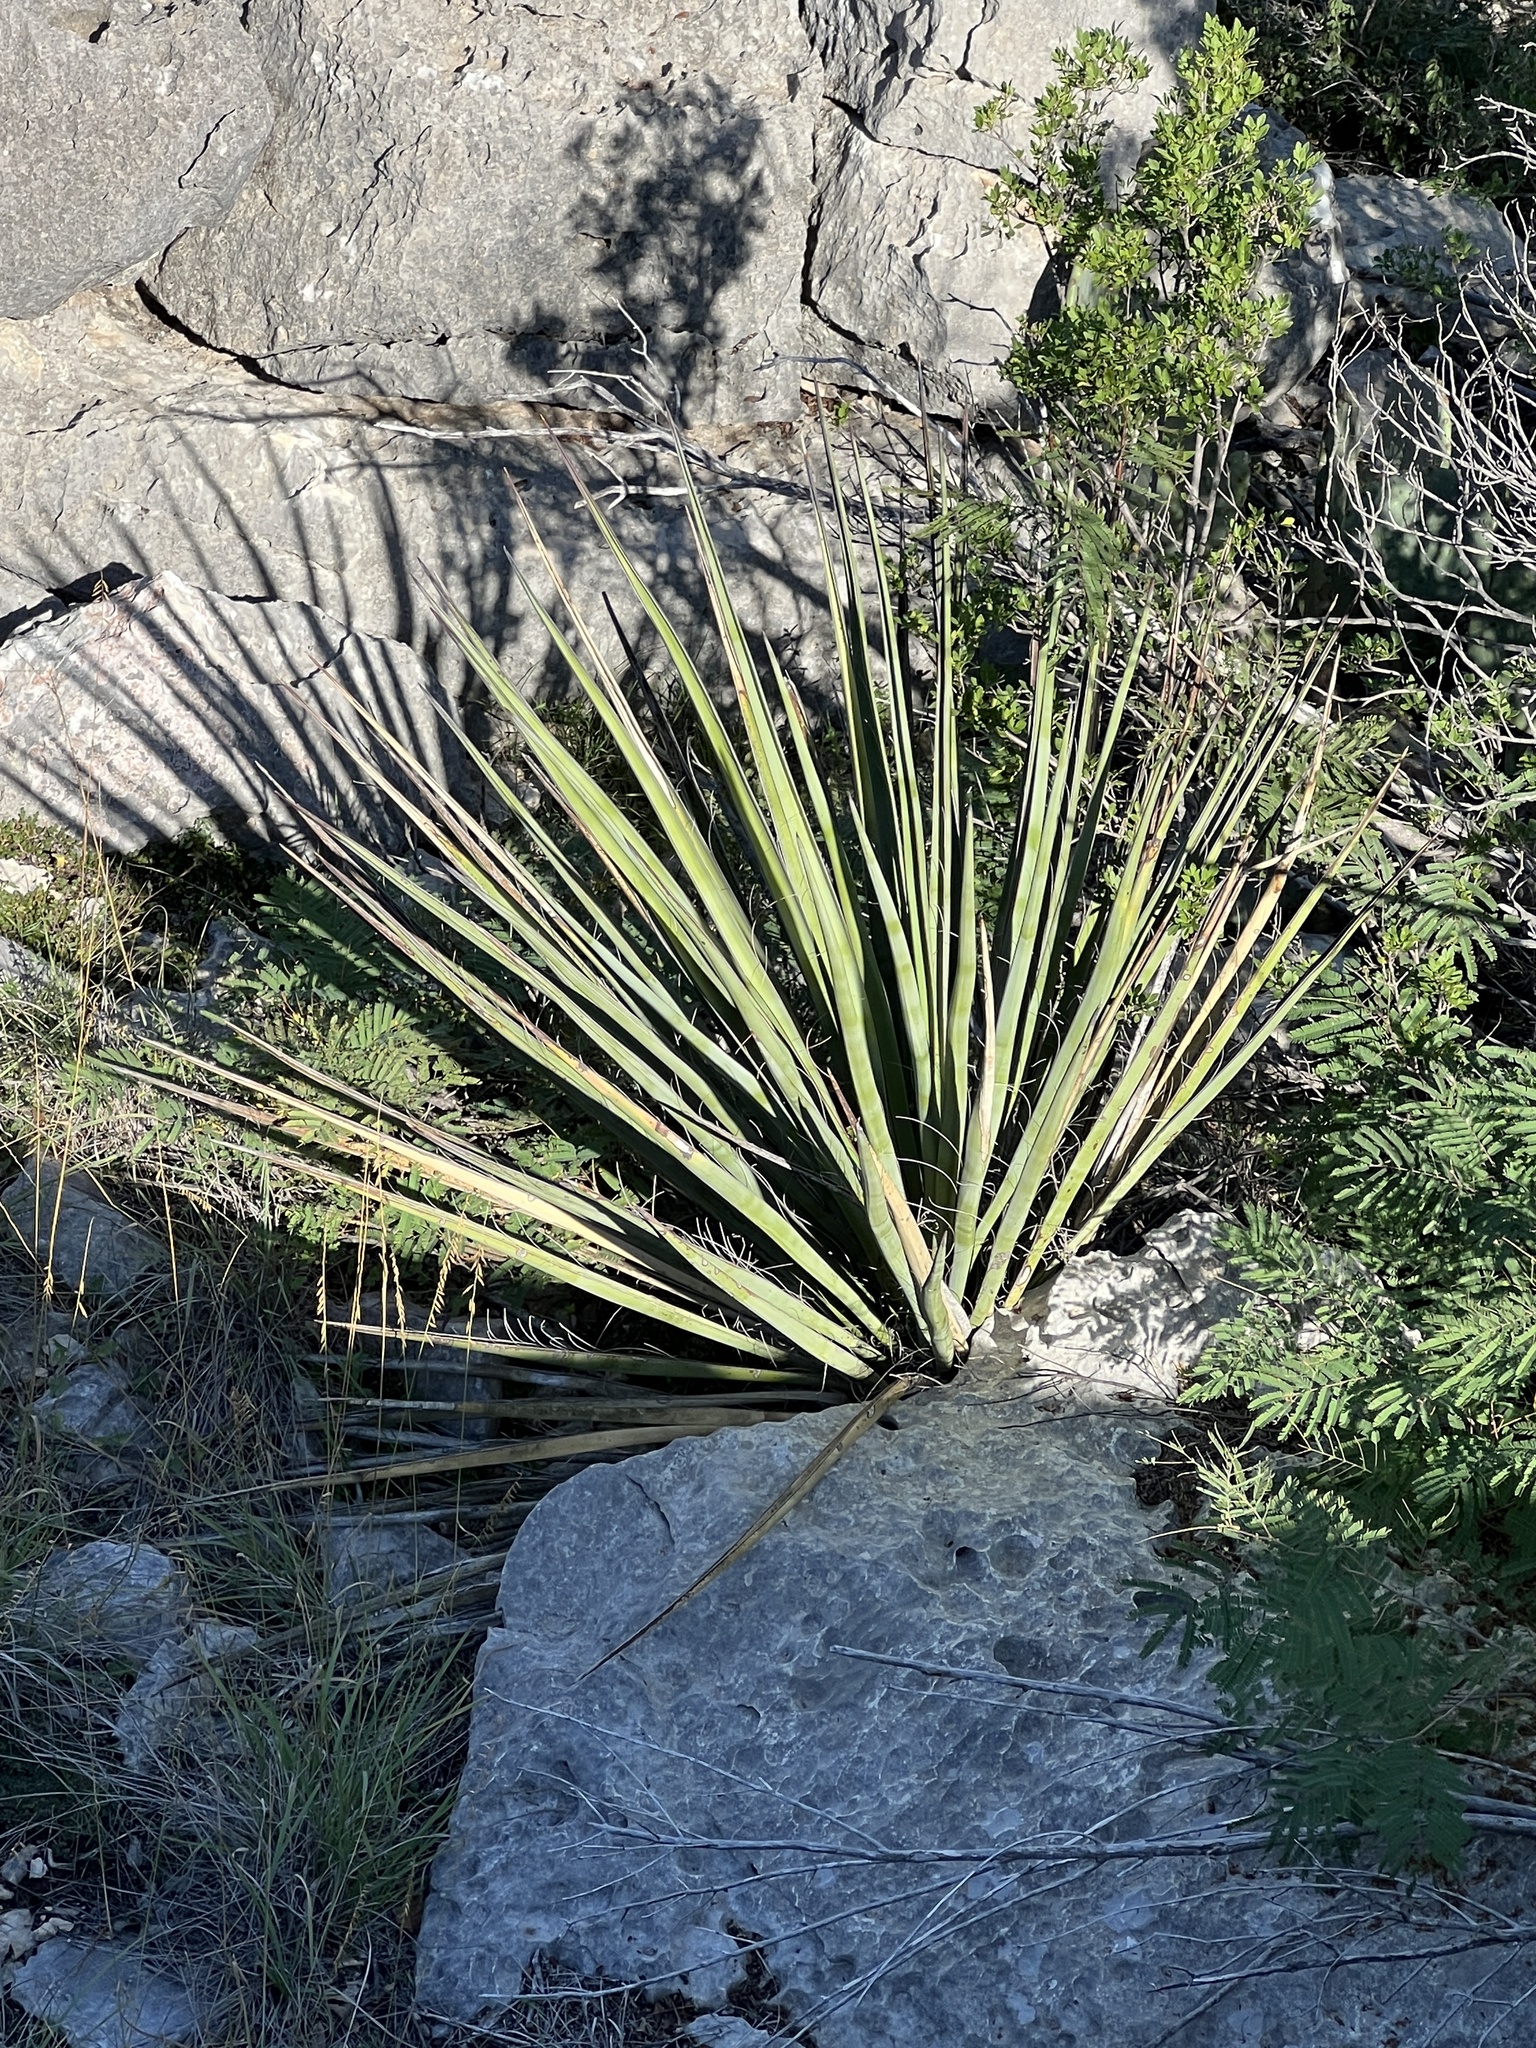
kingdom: Plantae
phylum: Tracheophyta
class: Liliopsida
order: Asparagales
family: Asparagaceae
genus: Yucca
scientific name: Yucca treculiana
